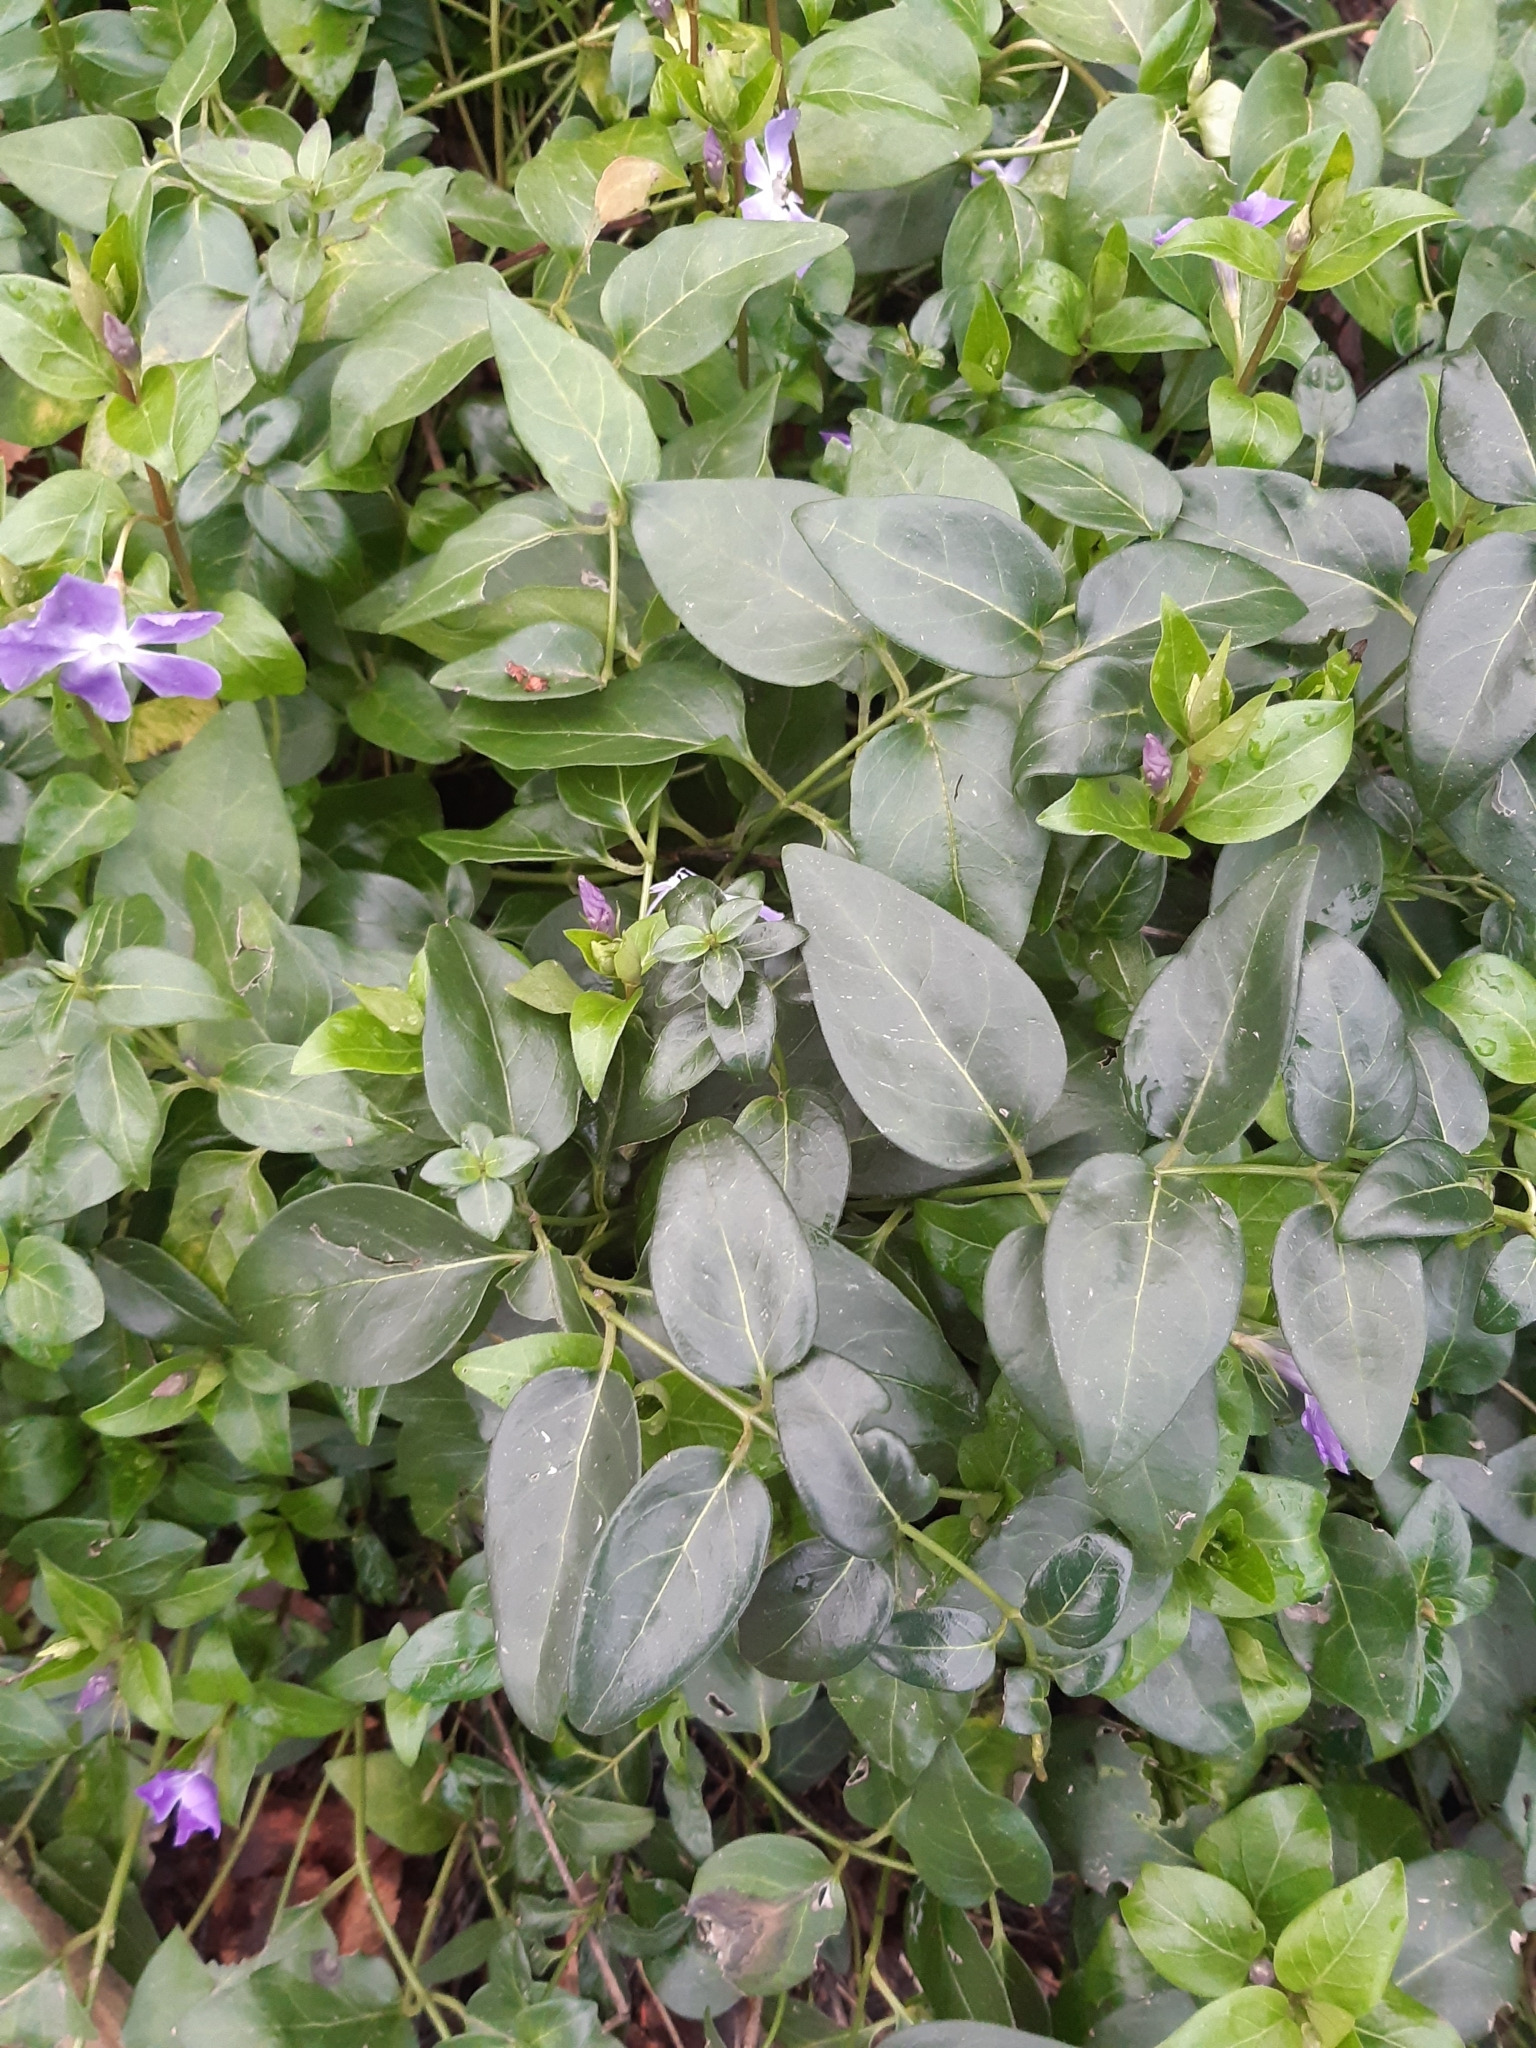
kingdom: Plantae
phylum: Tracheophyta
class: Magnoliopsida
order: Gentianales
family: Apocynaceae
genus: Vinca
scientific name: Vinca major
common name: Greater periwinkle
